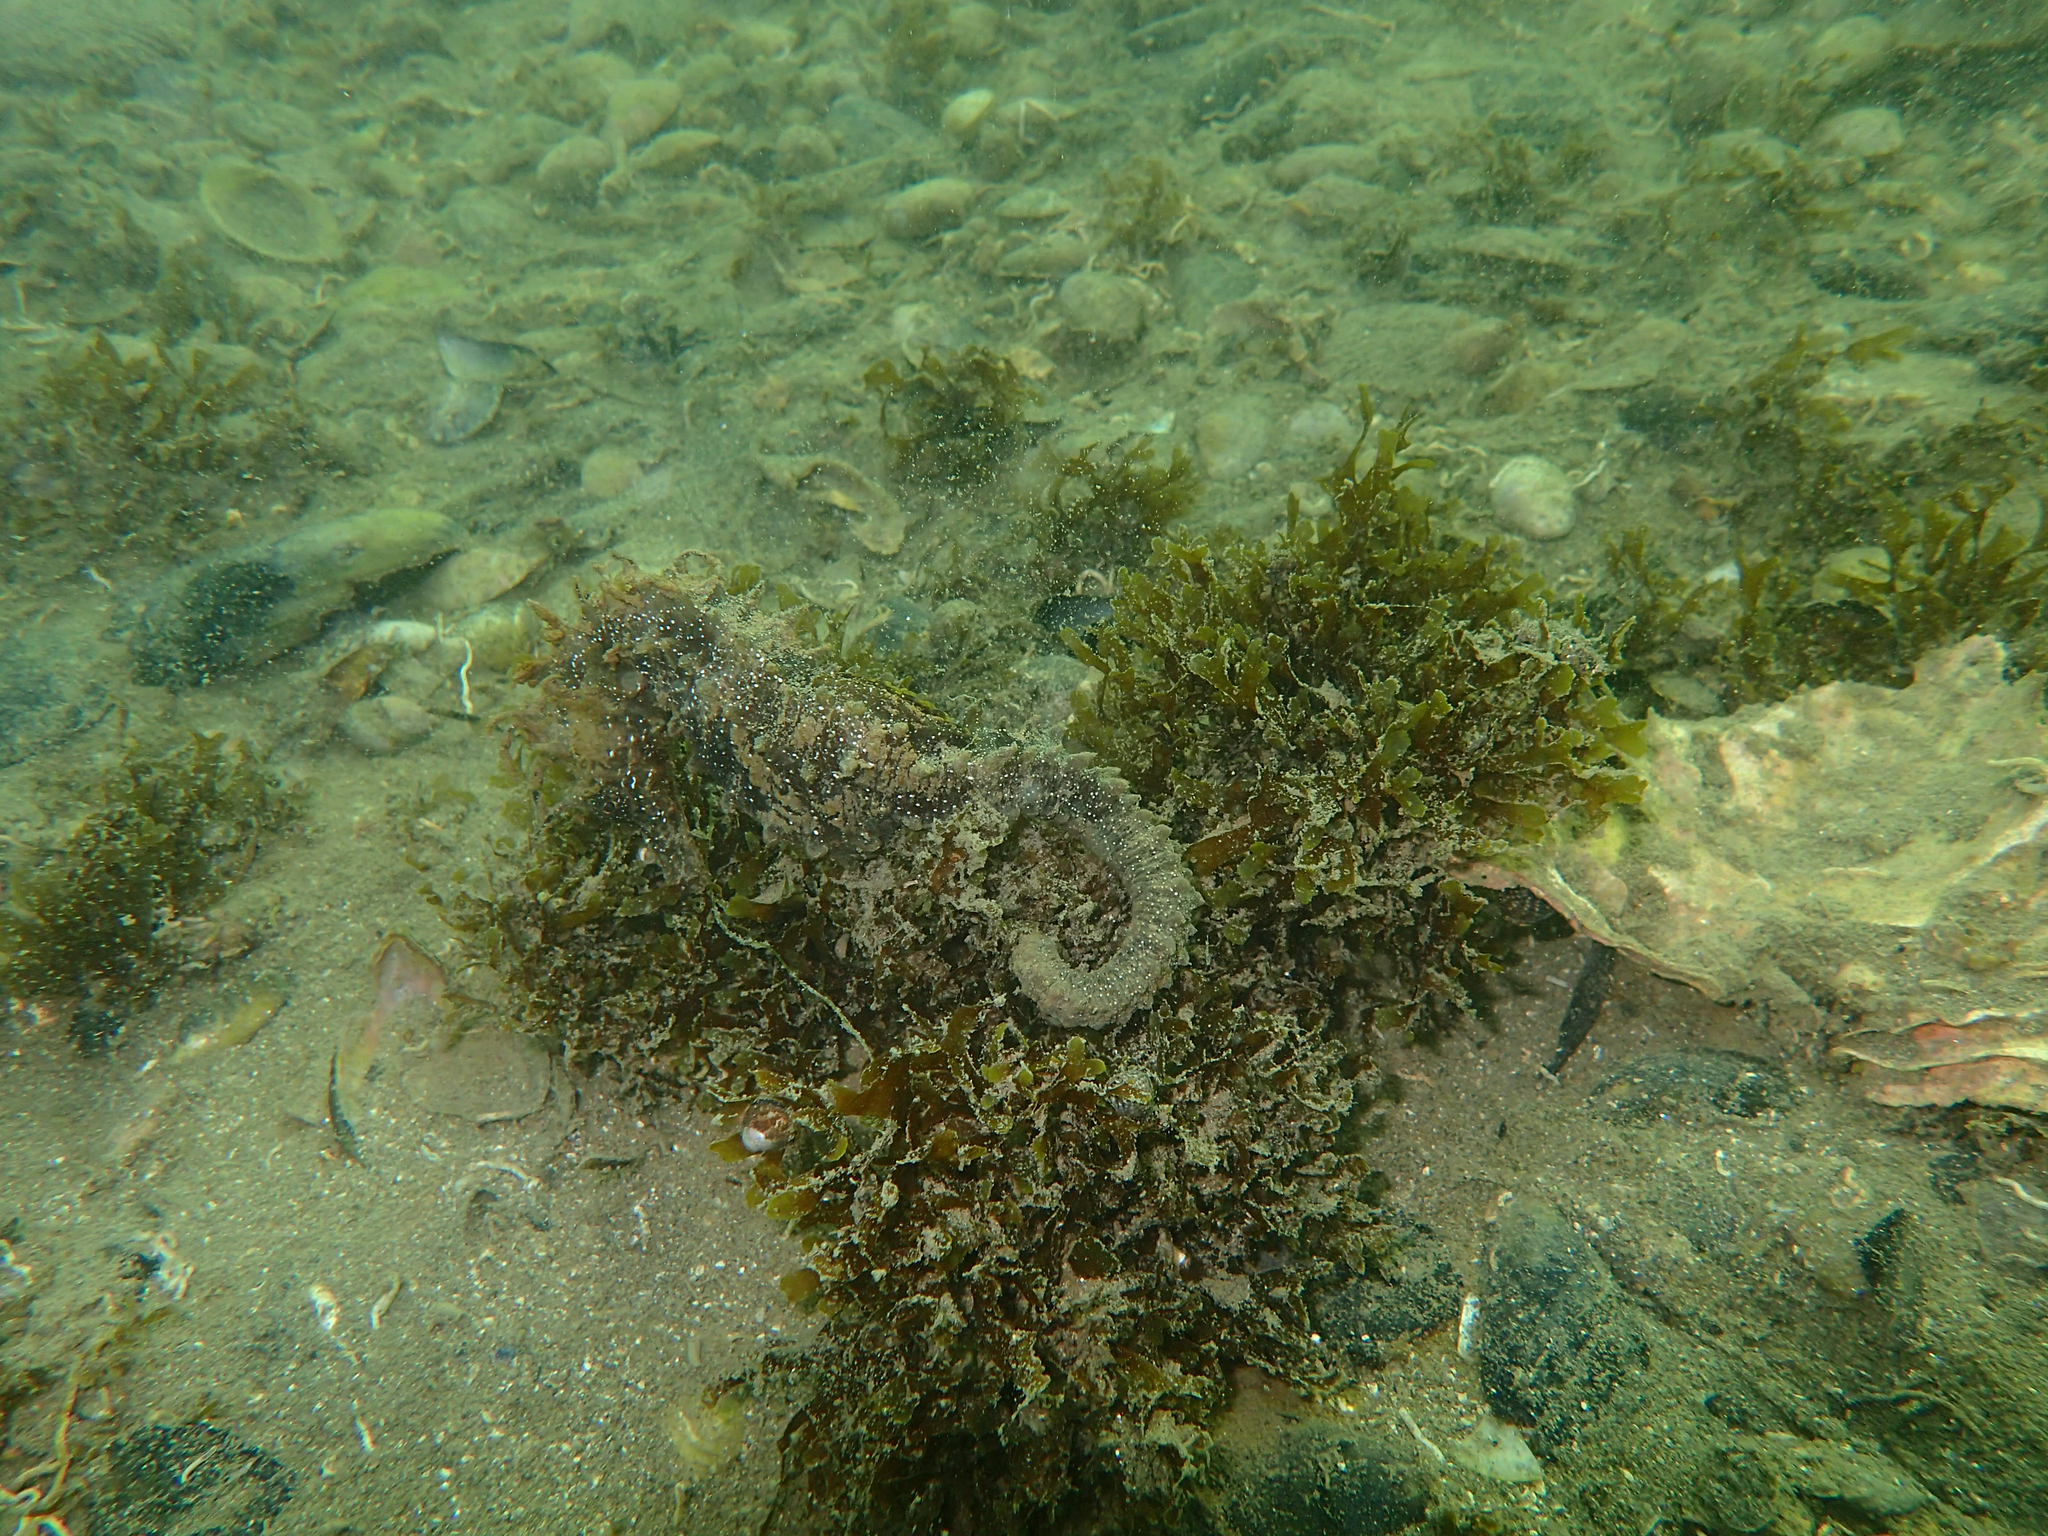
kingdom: Animalia
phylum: Chordata
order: Syngnathiformes
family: Syngnathidae
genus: Hippocampus
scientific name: Hippocampus guttulatus
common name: Long-snouted seahorse
